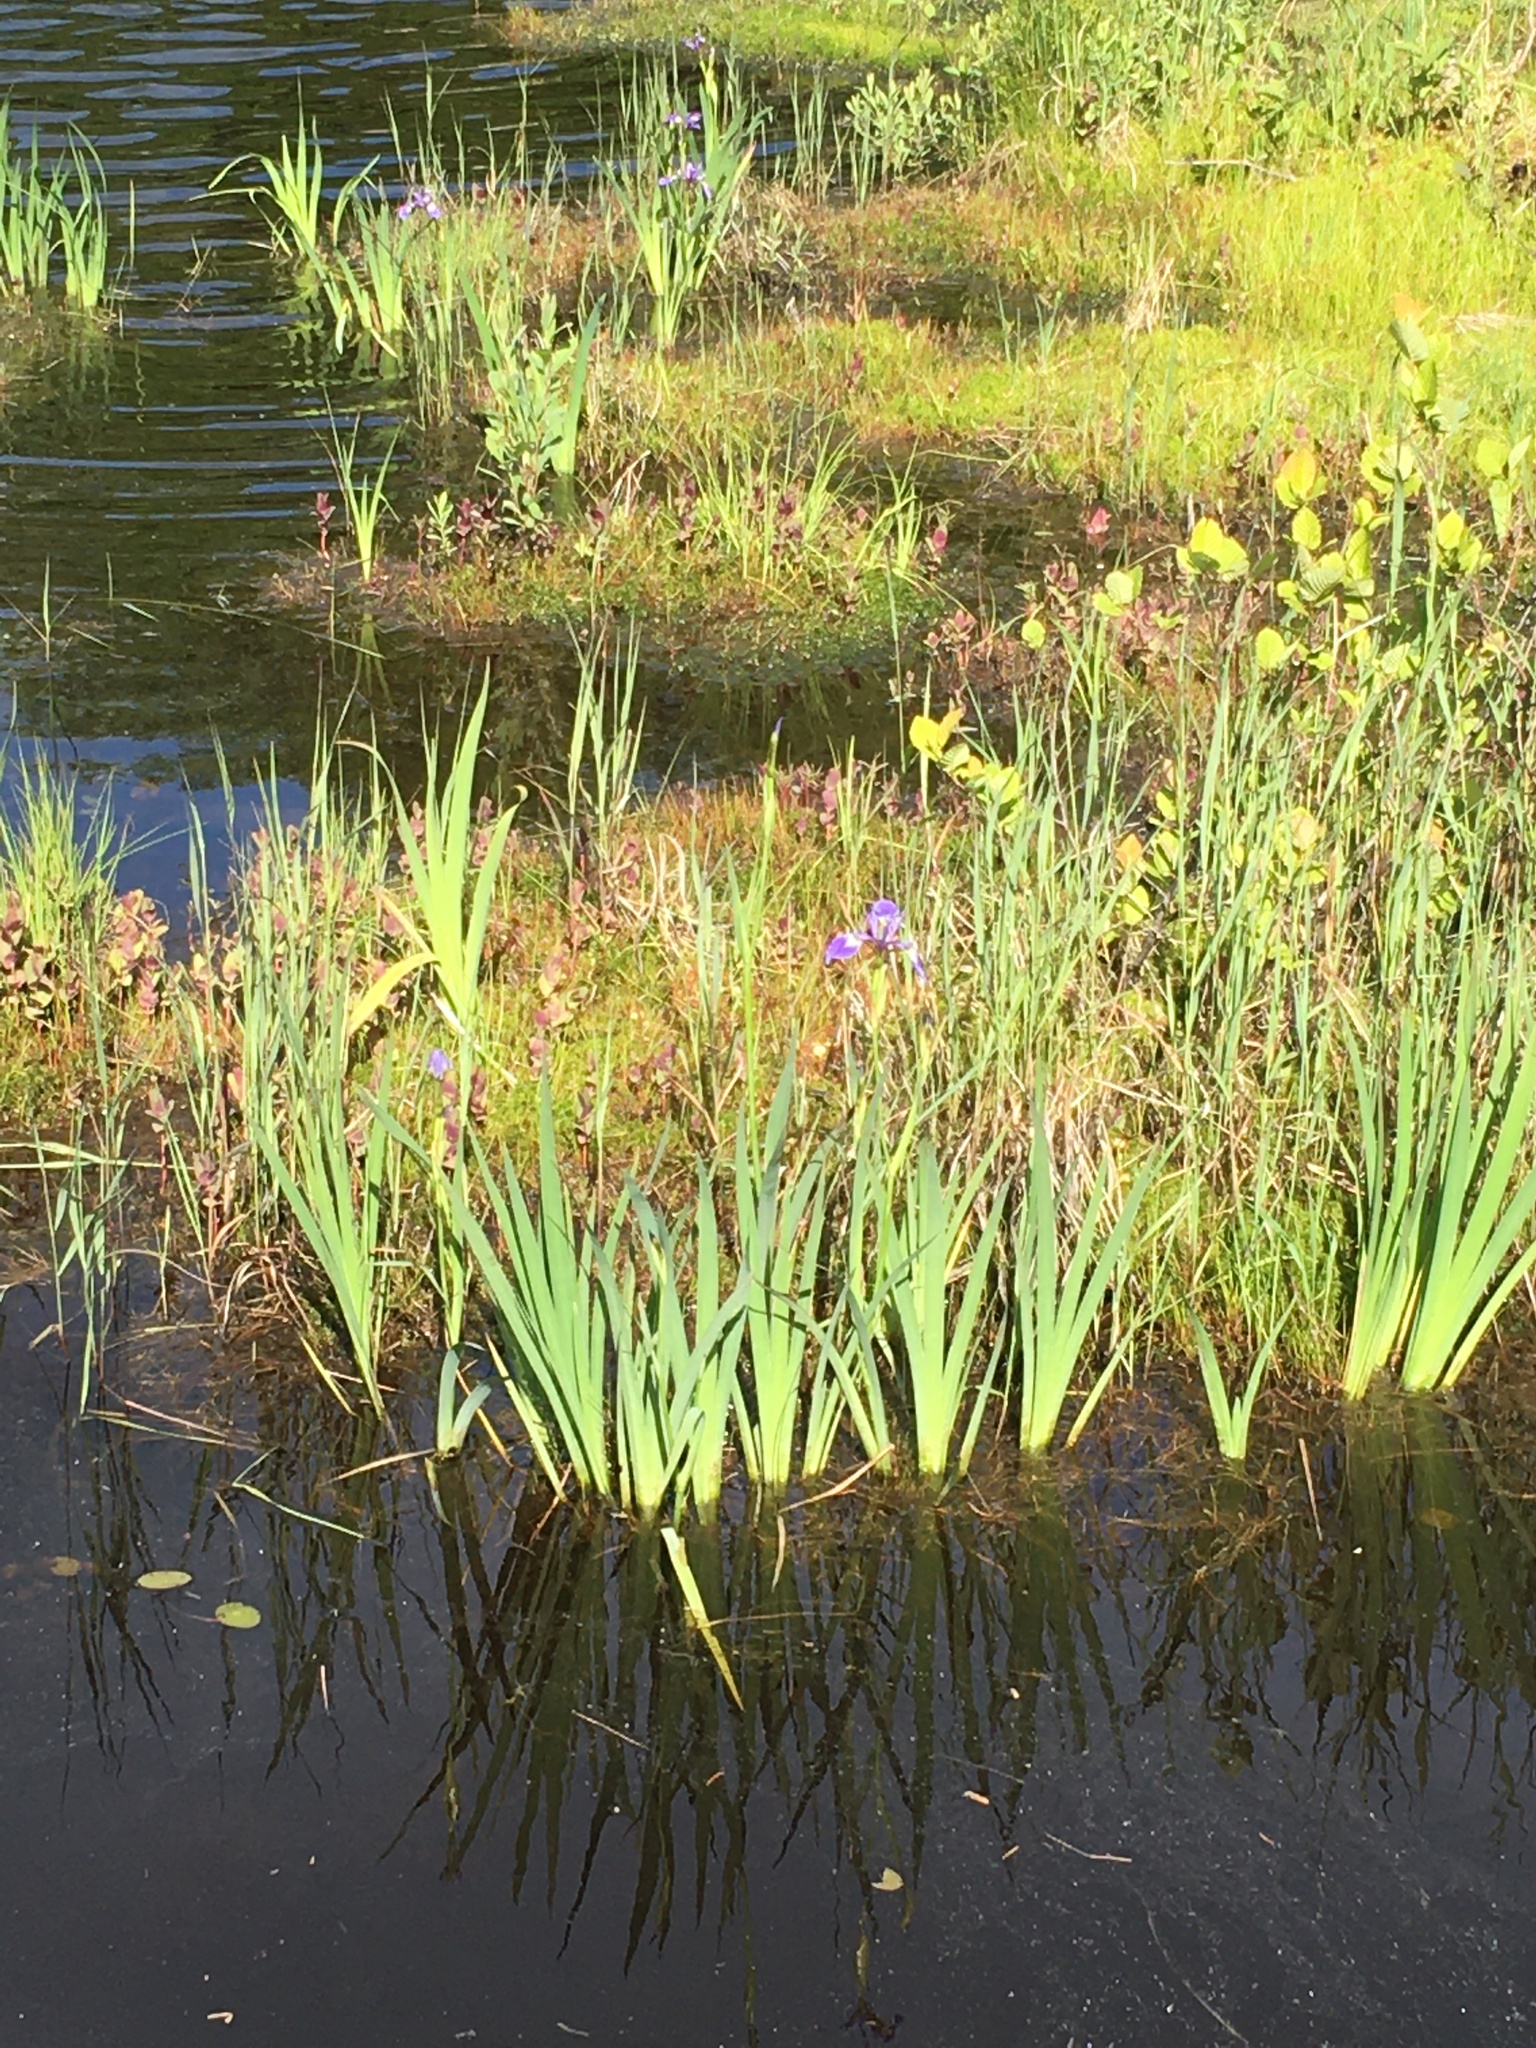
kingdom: Plantae
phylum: Tracheophyta
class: Liliopsida
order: Asparagales
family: Iridaceae
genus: Iris
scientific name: Iris versicolor
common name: Purple iris
